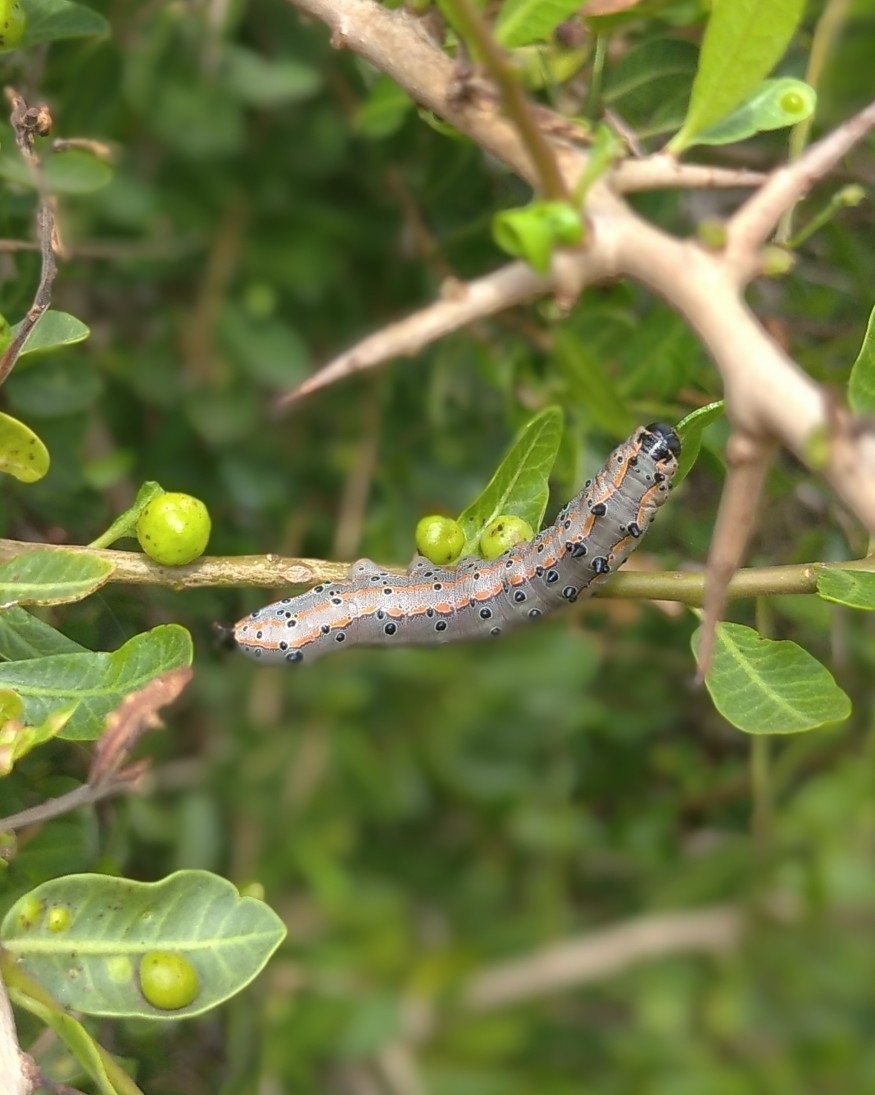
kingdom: Animalia
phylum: Arthropoda
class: Insecta
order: Lepidoptera
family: Notodontidae
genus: Tecmessa
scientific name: Tecmessa annulipes
